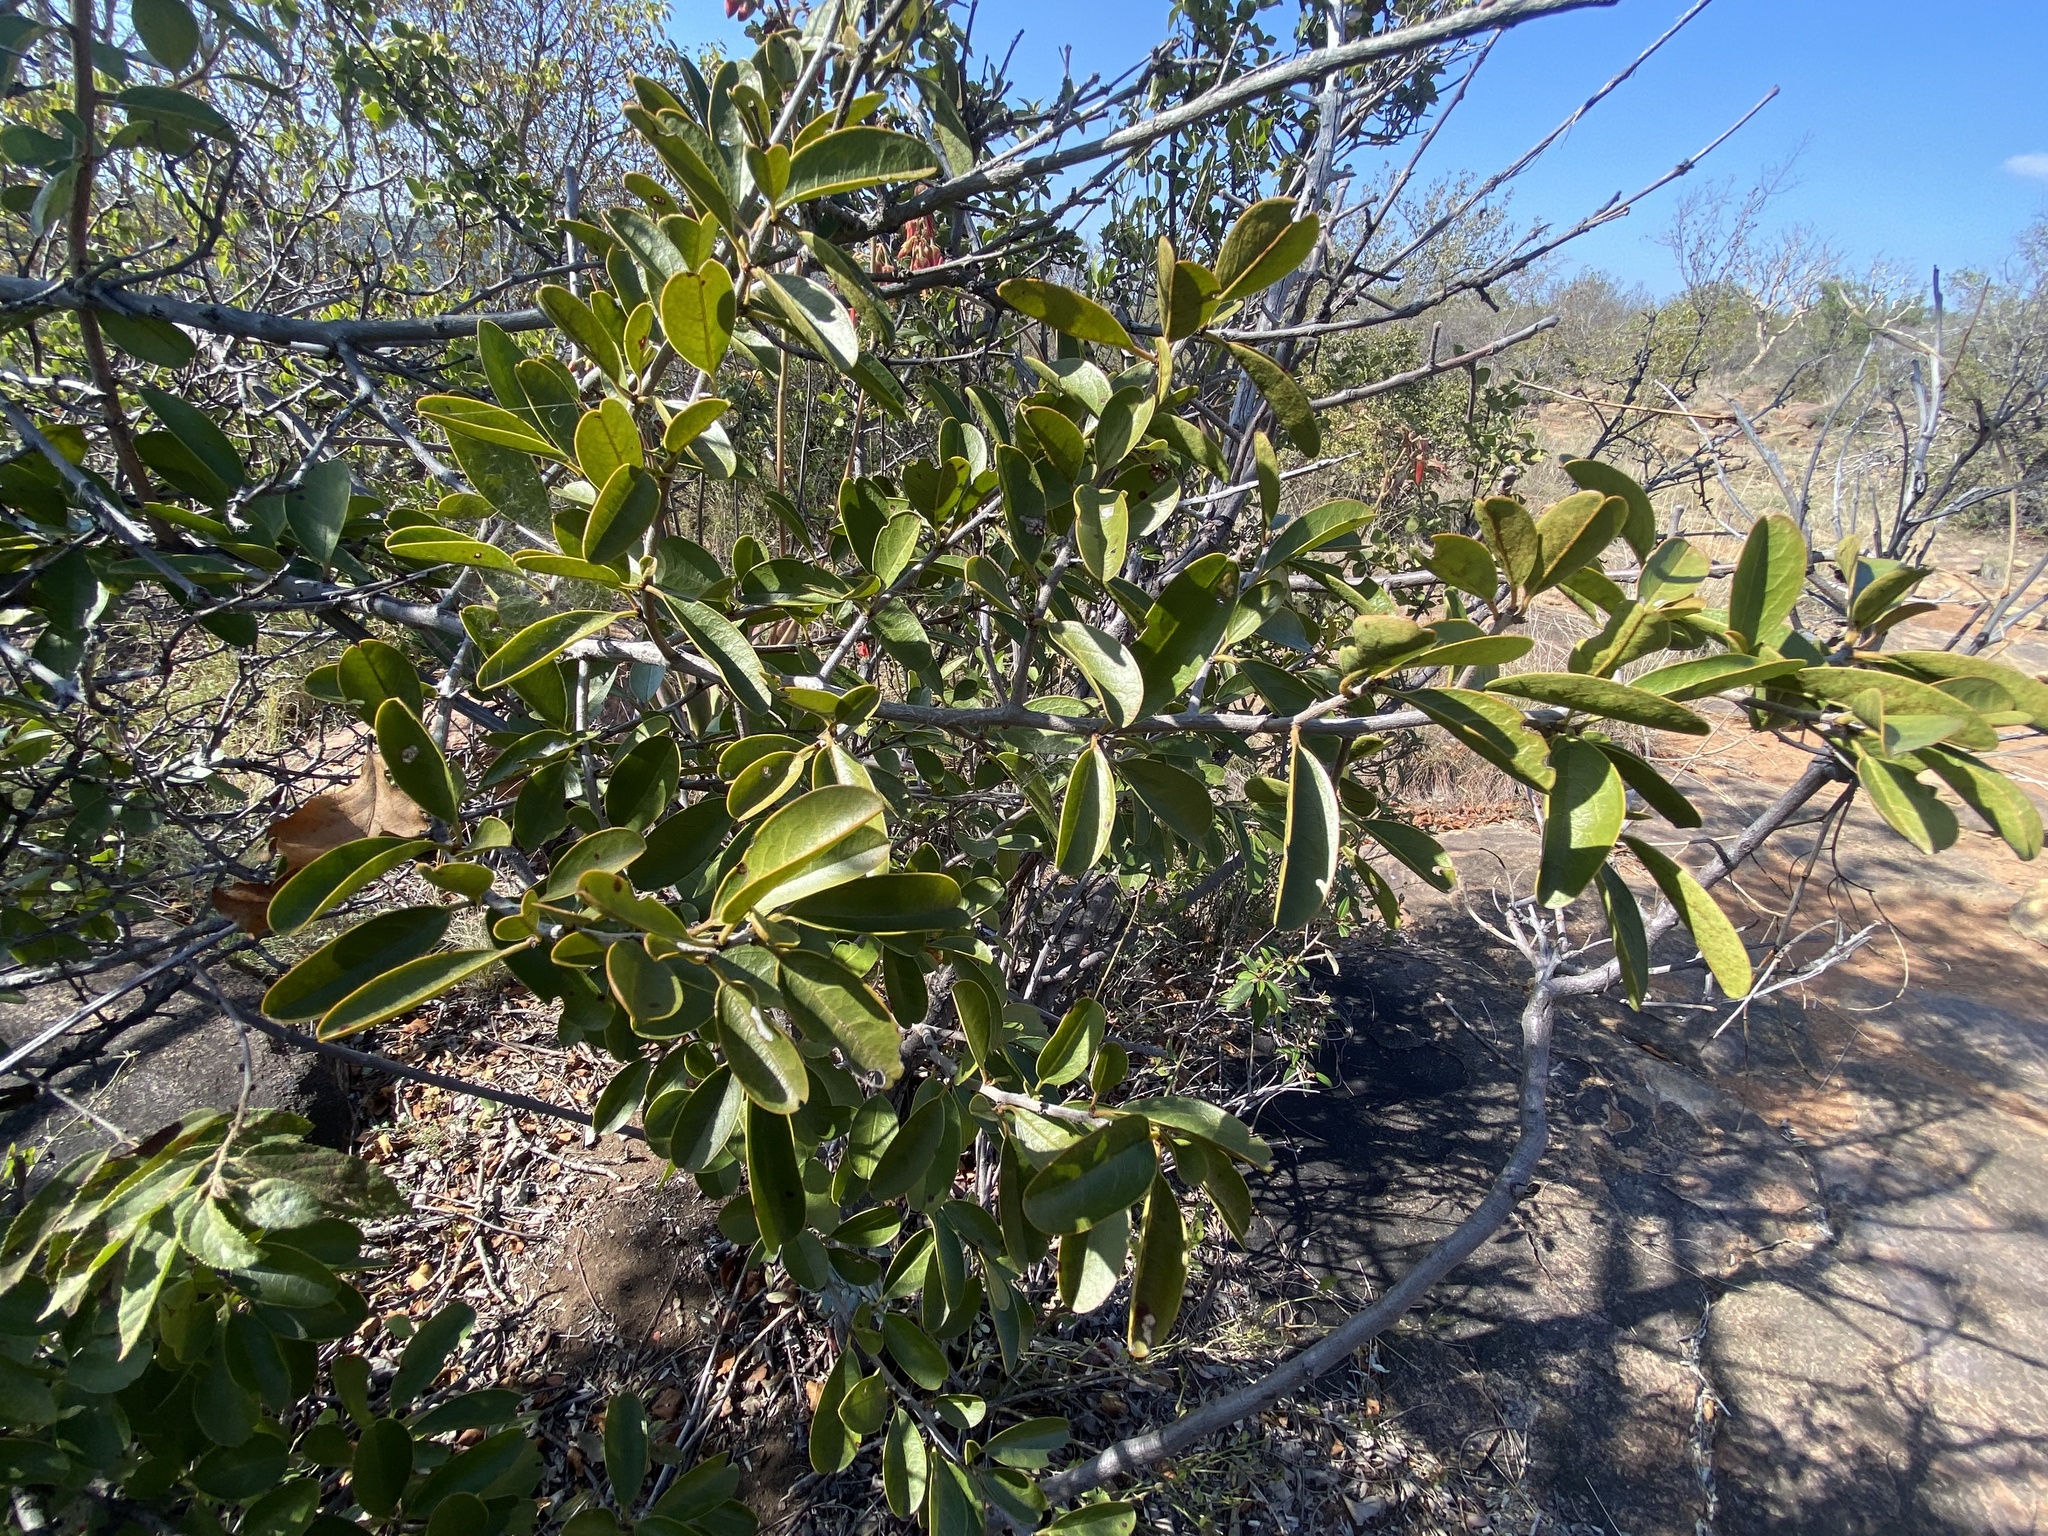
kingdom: Plantae
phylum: Tracheophyta
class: Magnoliopsida
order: Santalales
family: Ximeniaceae
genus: Ximenia
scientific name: Ximenia caffra
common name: Large sourplum
